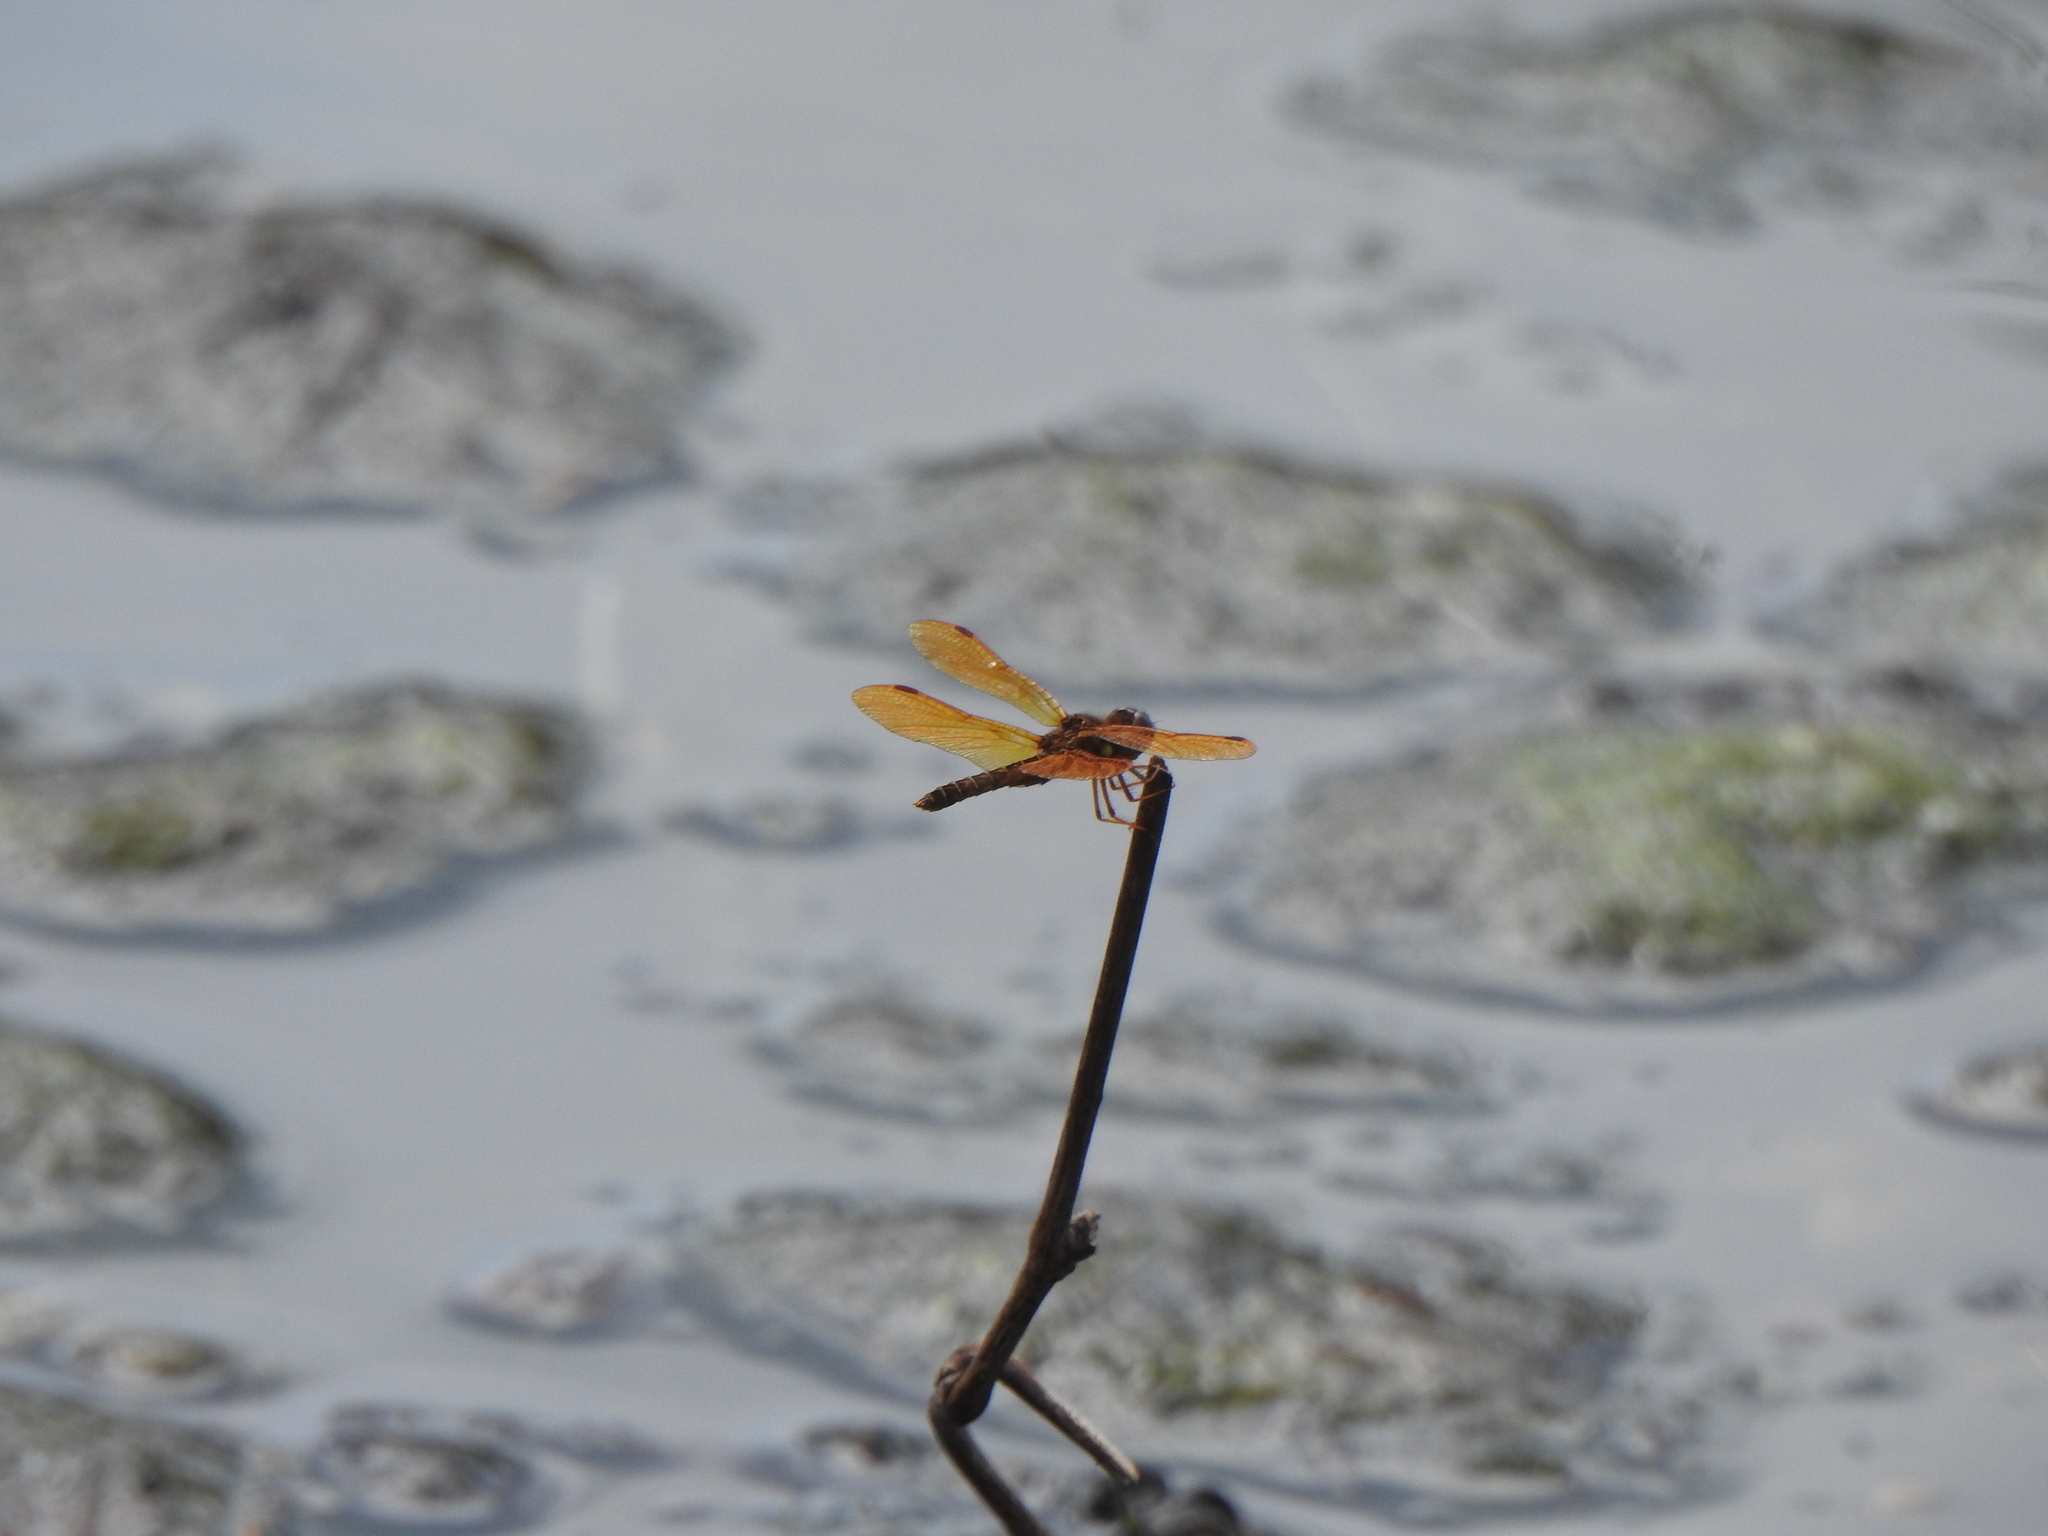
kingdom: Animalia
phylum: Arthropoda
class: Insecta
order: Odonata
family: Libellulidae
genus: Perithemis
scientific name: Perithemis tenera
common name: Eastern amberwing
